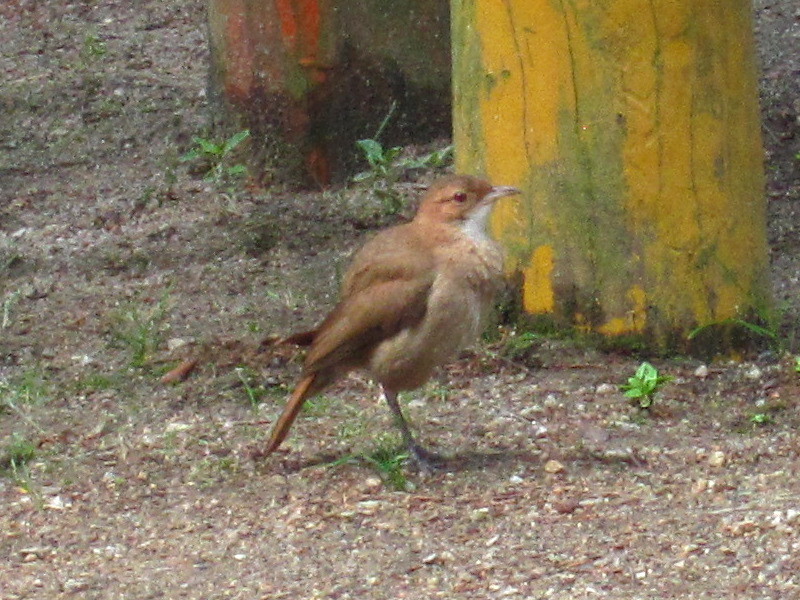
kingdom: Animalia
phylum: Chordata
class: Aves
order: Passeriformes
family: Furnariidae
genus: Furnarius
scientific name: Furnarius rufus
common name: Rufous hornero
